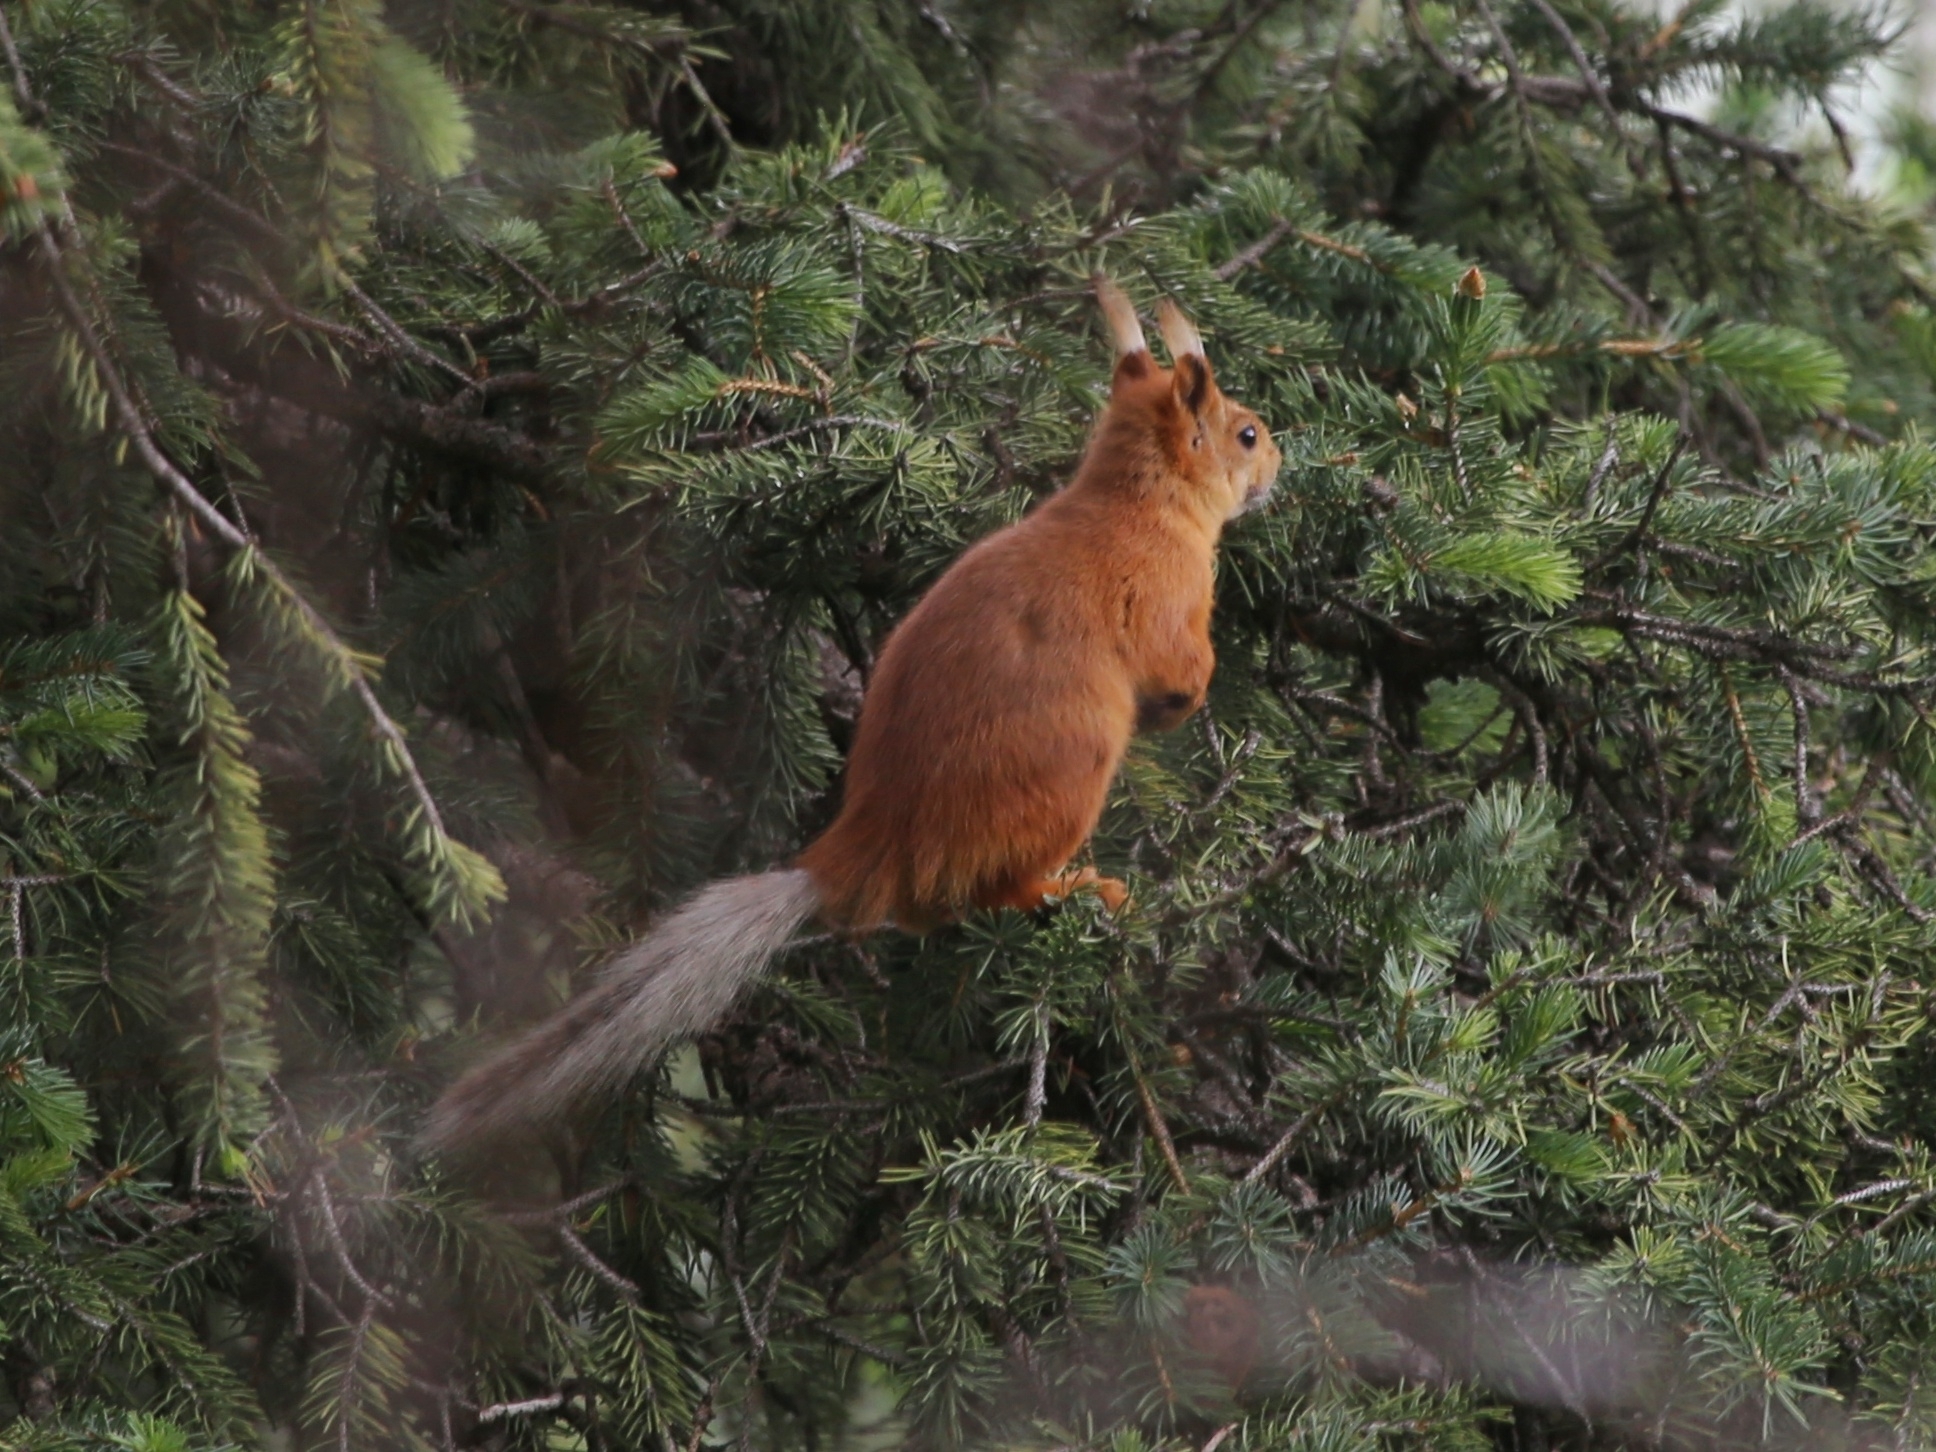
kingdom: Animalia
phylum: Chordata
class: Mammalia
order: Rodentia
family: Sciuridae
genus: Sciurus
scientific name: Sciurus vulgaris
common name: Eurasian red squirrel
